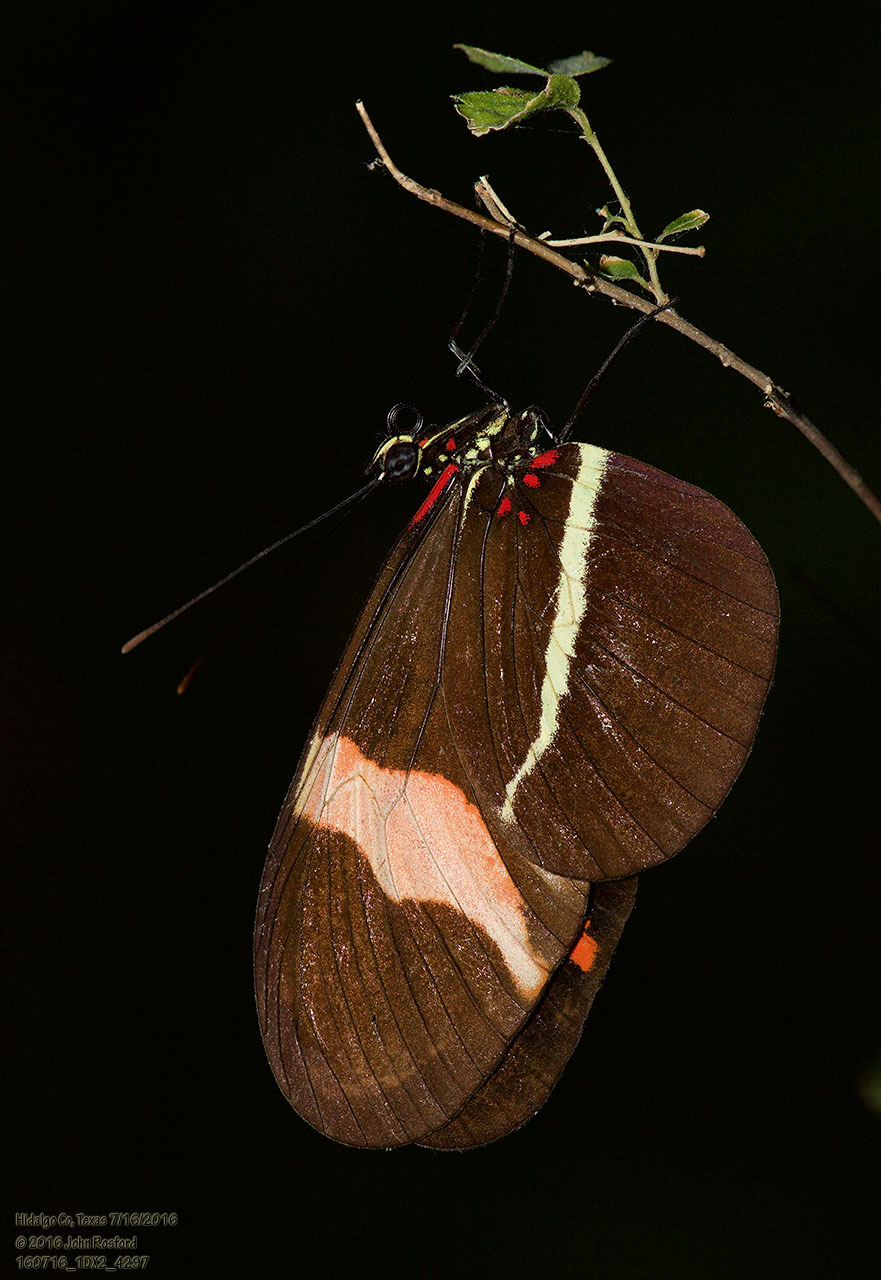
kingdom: Animalia
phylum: Arthropoda
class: Insecta
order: Lepidoptera
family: Nymphalidae
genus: Tirumala
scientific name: Tirumala petiverana
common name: Blue monarch
